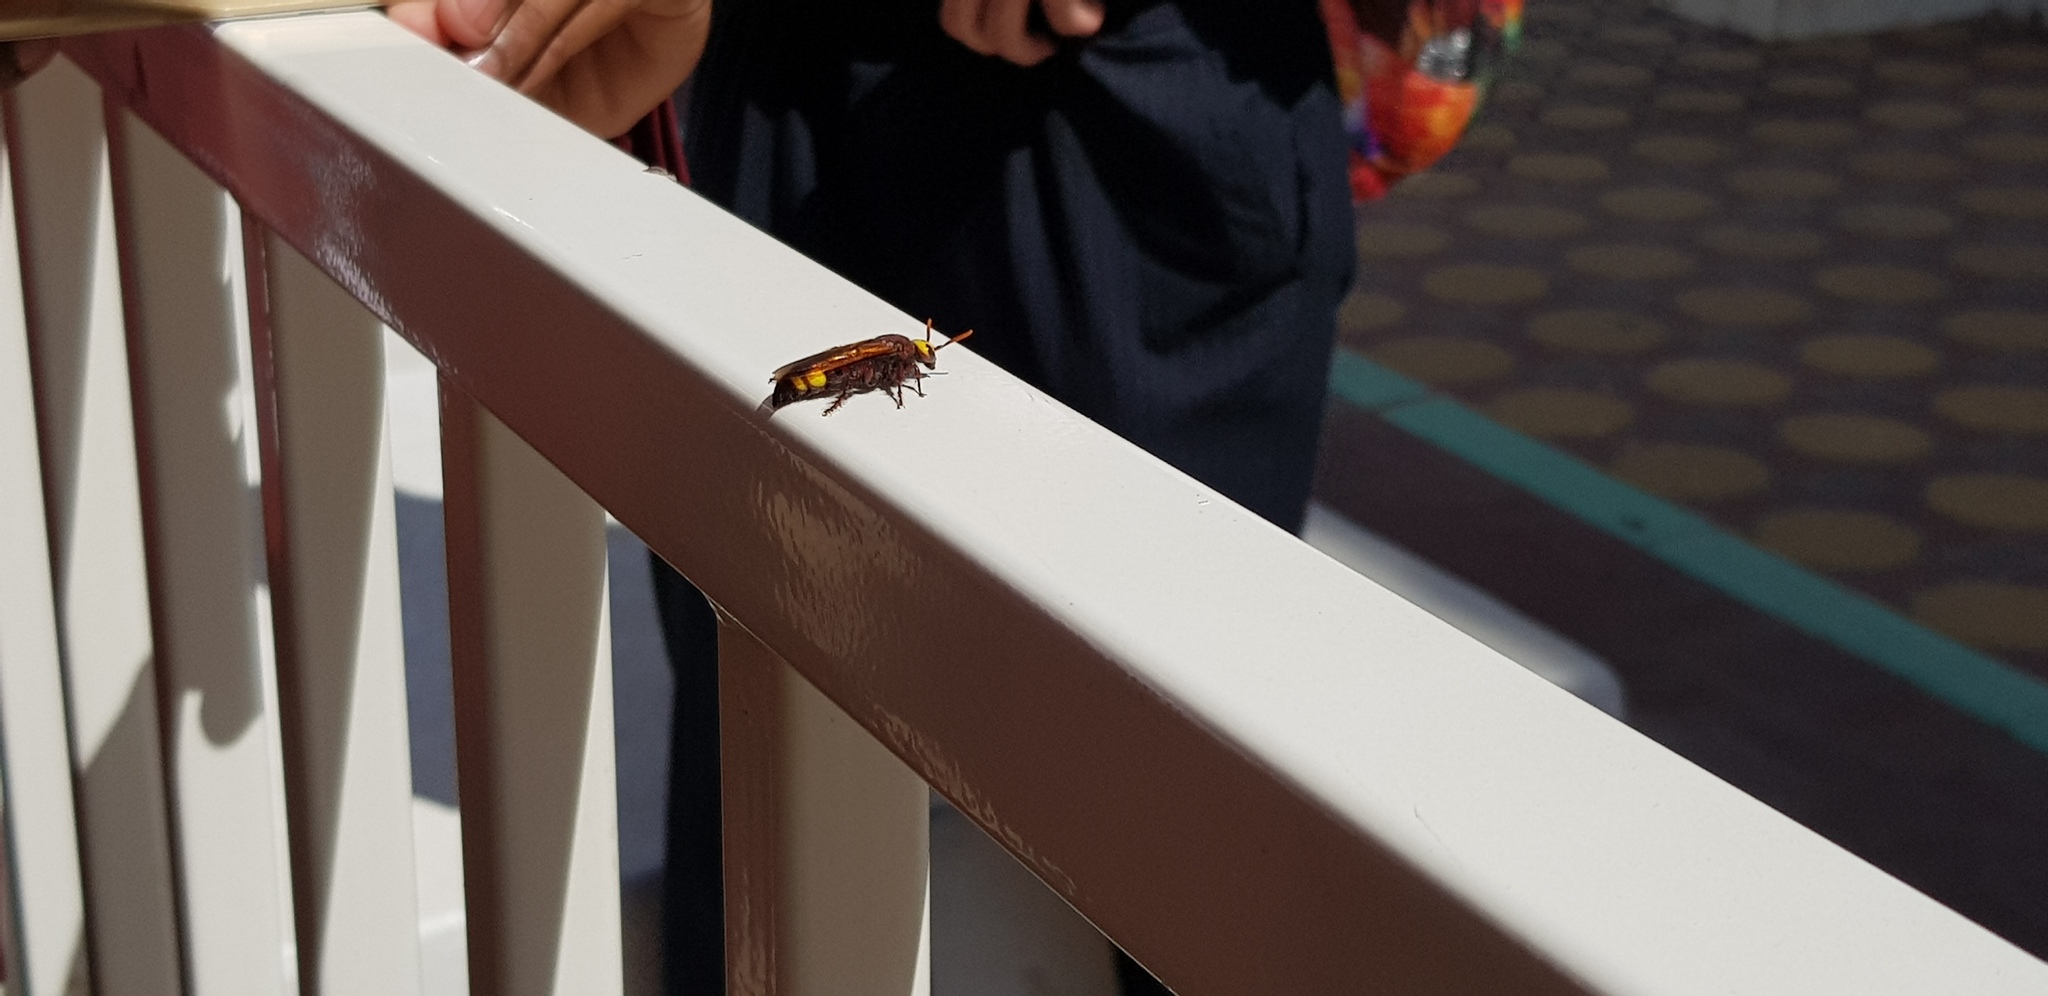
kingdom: Animalia
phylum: Arthropoda
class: Insecta
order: Hymenoptera
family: Scoliidae
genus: Scolia
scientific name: Scolia flaviceps
